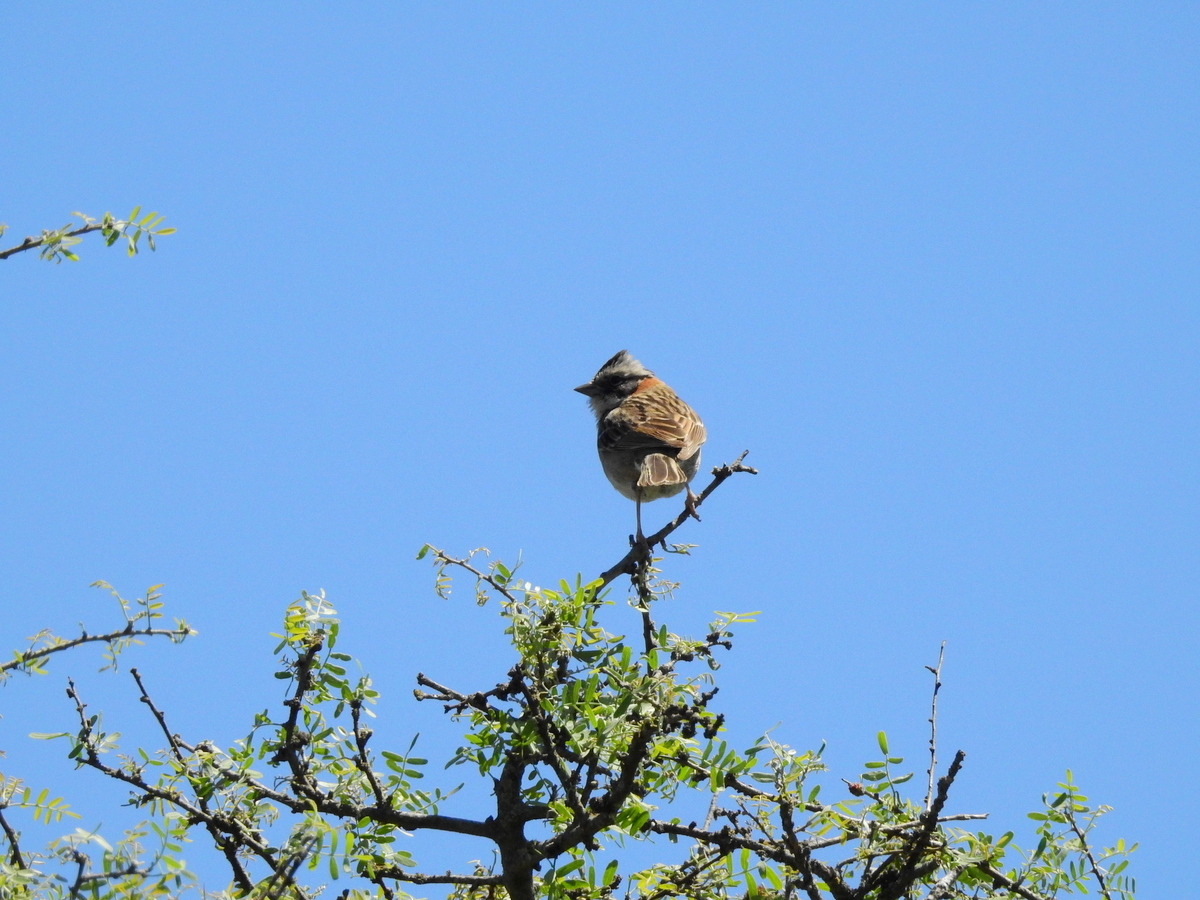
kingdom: Animalia
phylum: Chordata
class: Aves
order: Passeriformes
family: Passerellidae
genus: Zonotrichia
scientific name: Zonotrichia capensis
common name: Rufous-collared sparrow
